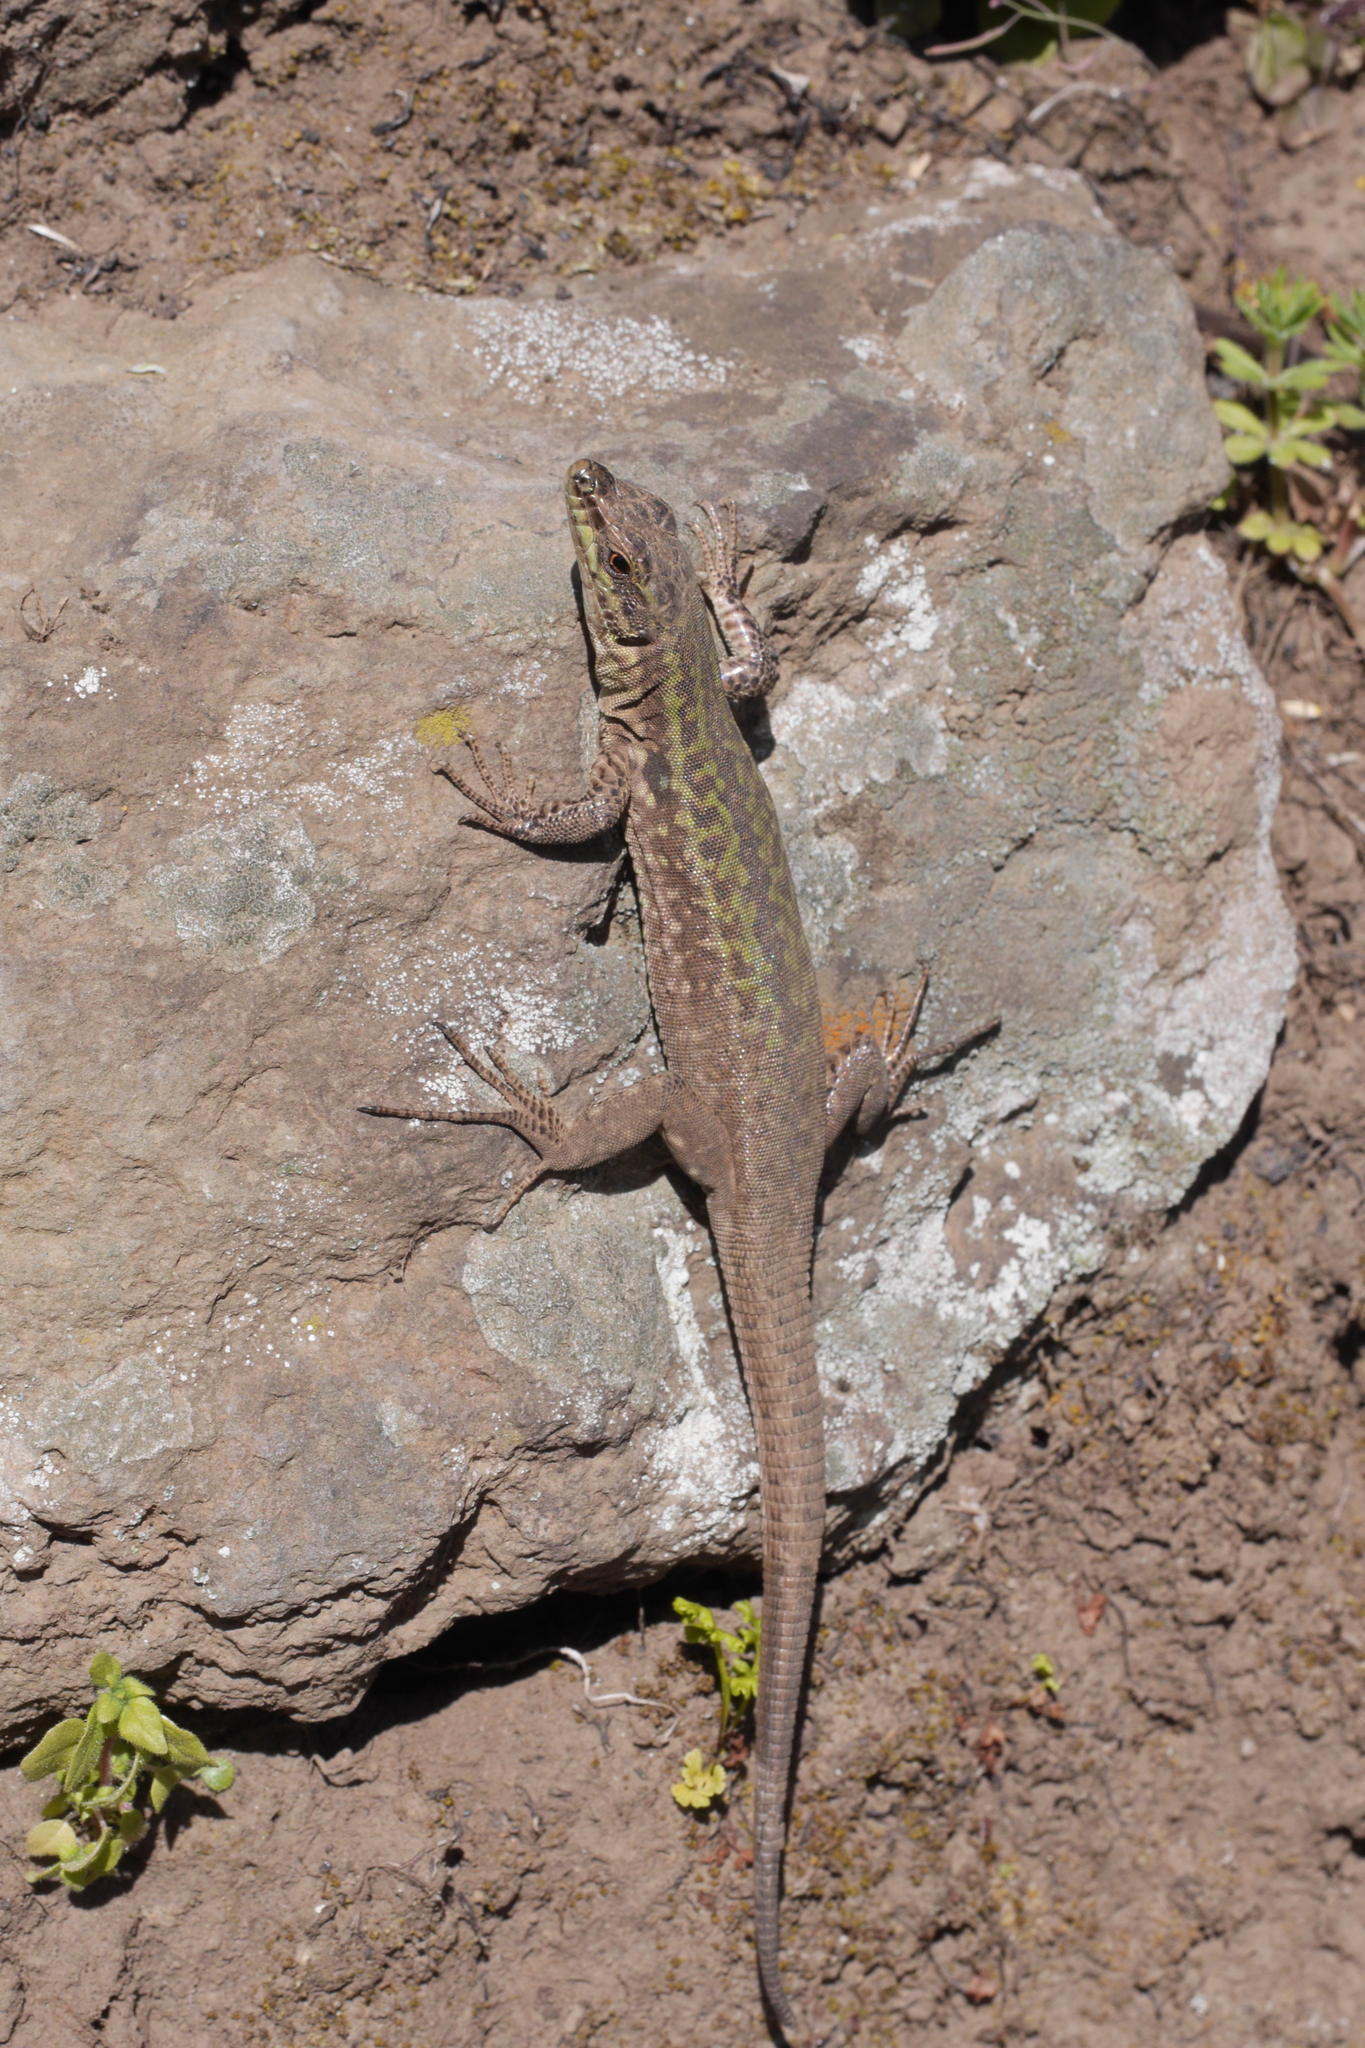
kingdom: Animalia
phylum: Chordata
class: Squamata
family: Lacertidae
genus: Podarcis
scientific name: Podarcis siculus
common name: Italian wall lizard
